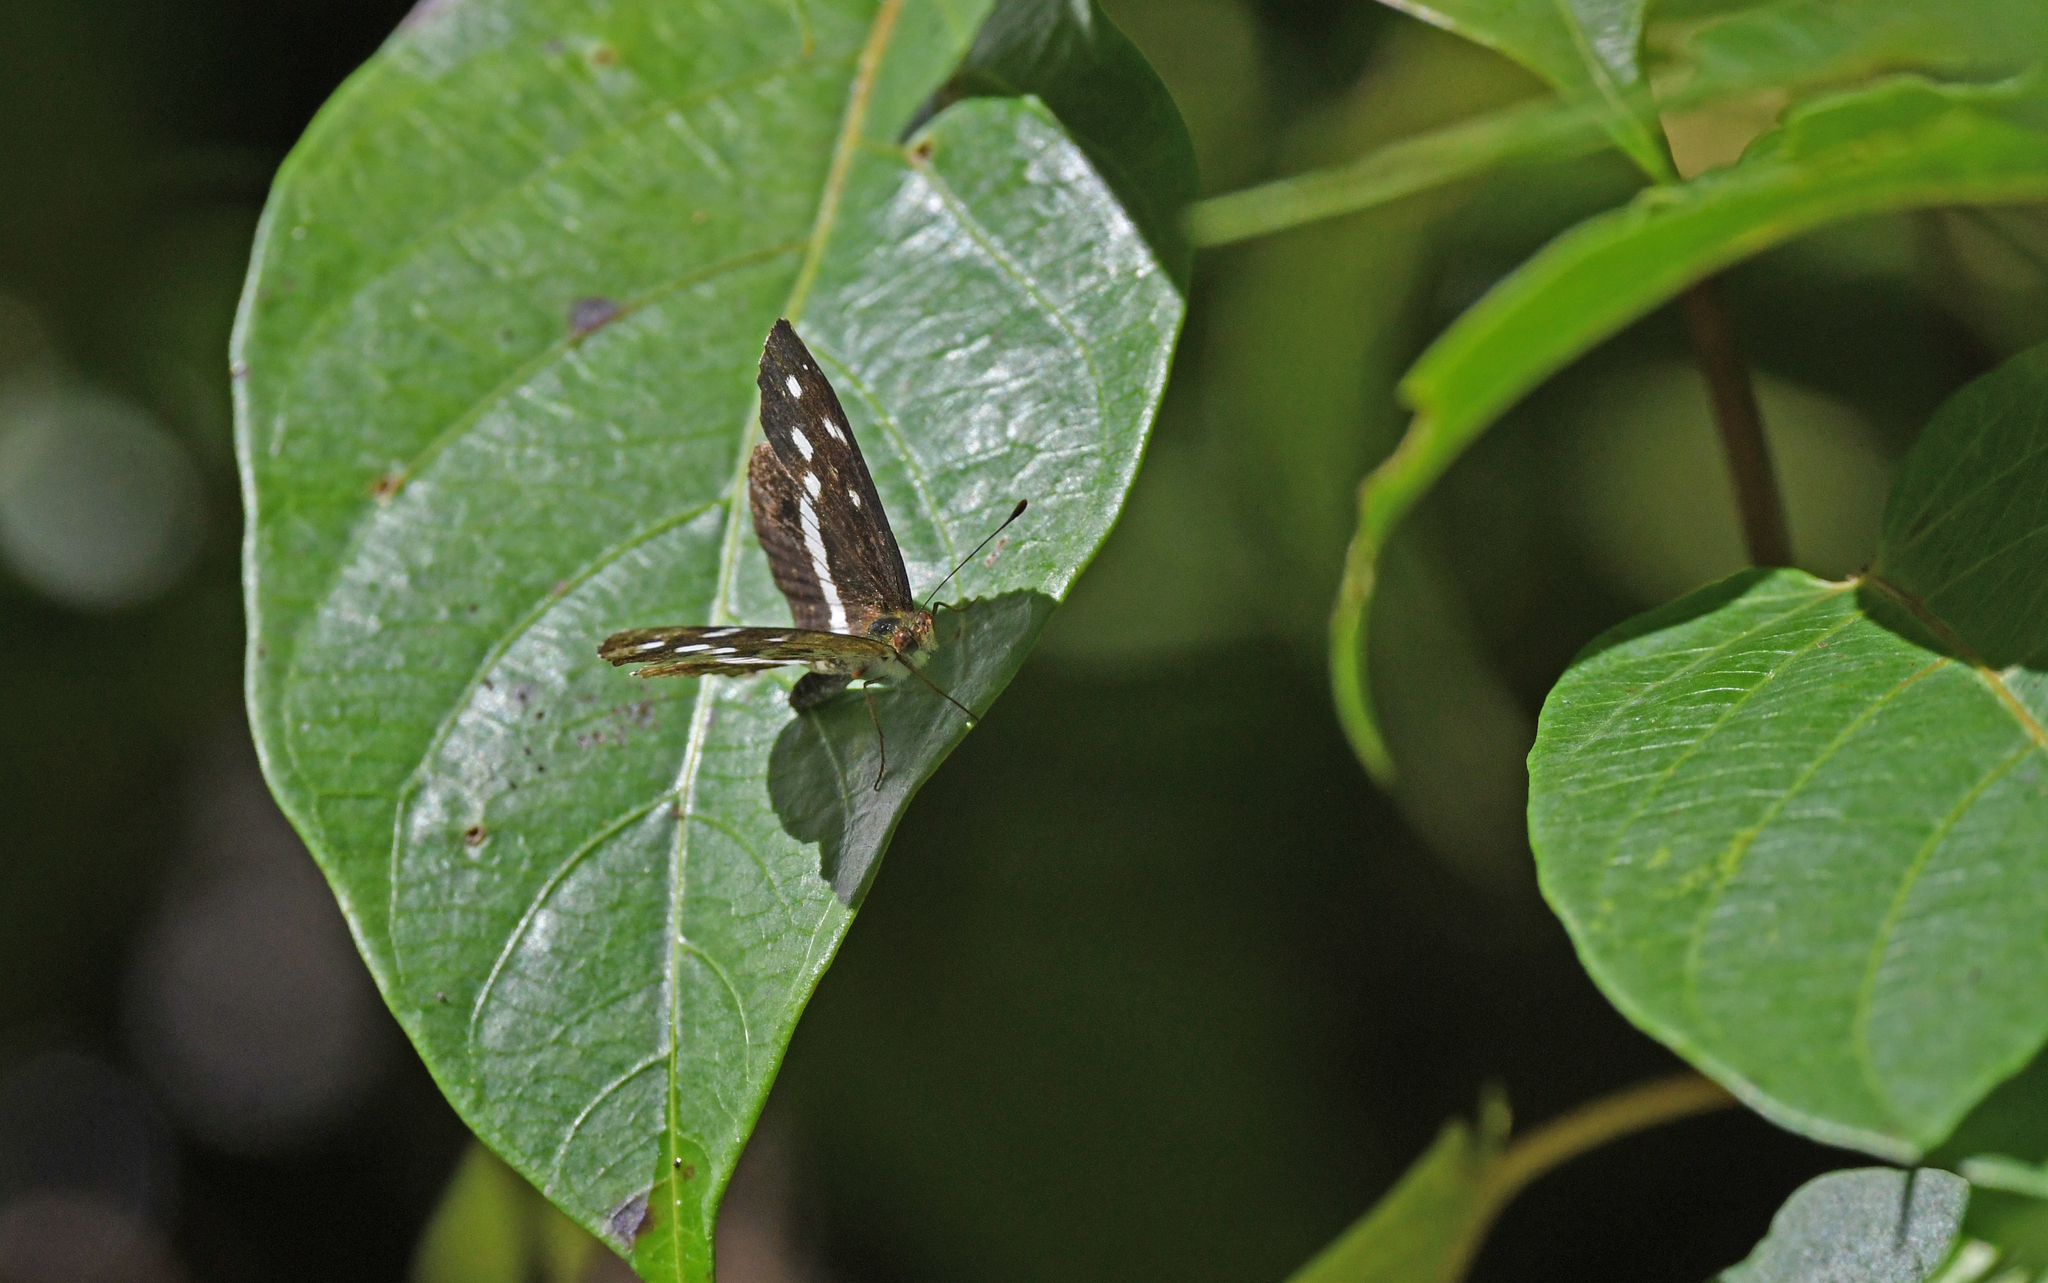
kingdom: Animalia
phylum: Arthropoda
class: Insecta
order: Lepidoptera
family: Nymphalidae
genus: Janatella
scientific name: Janatella fellula
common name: Colombian crescent
